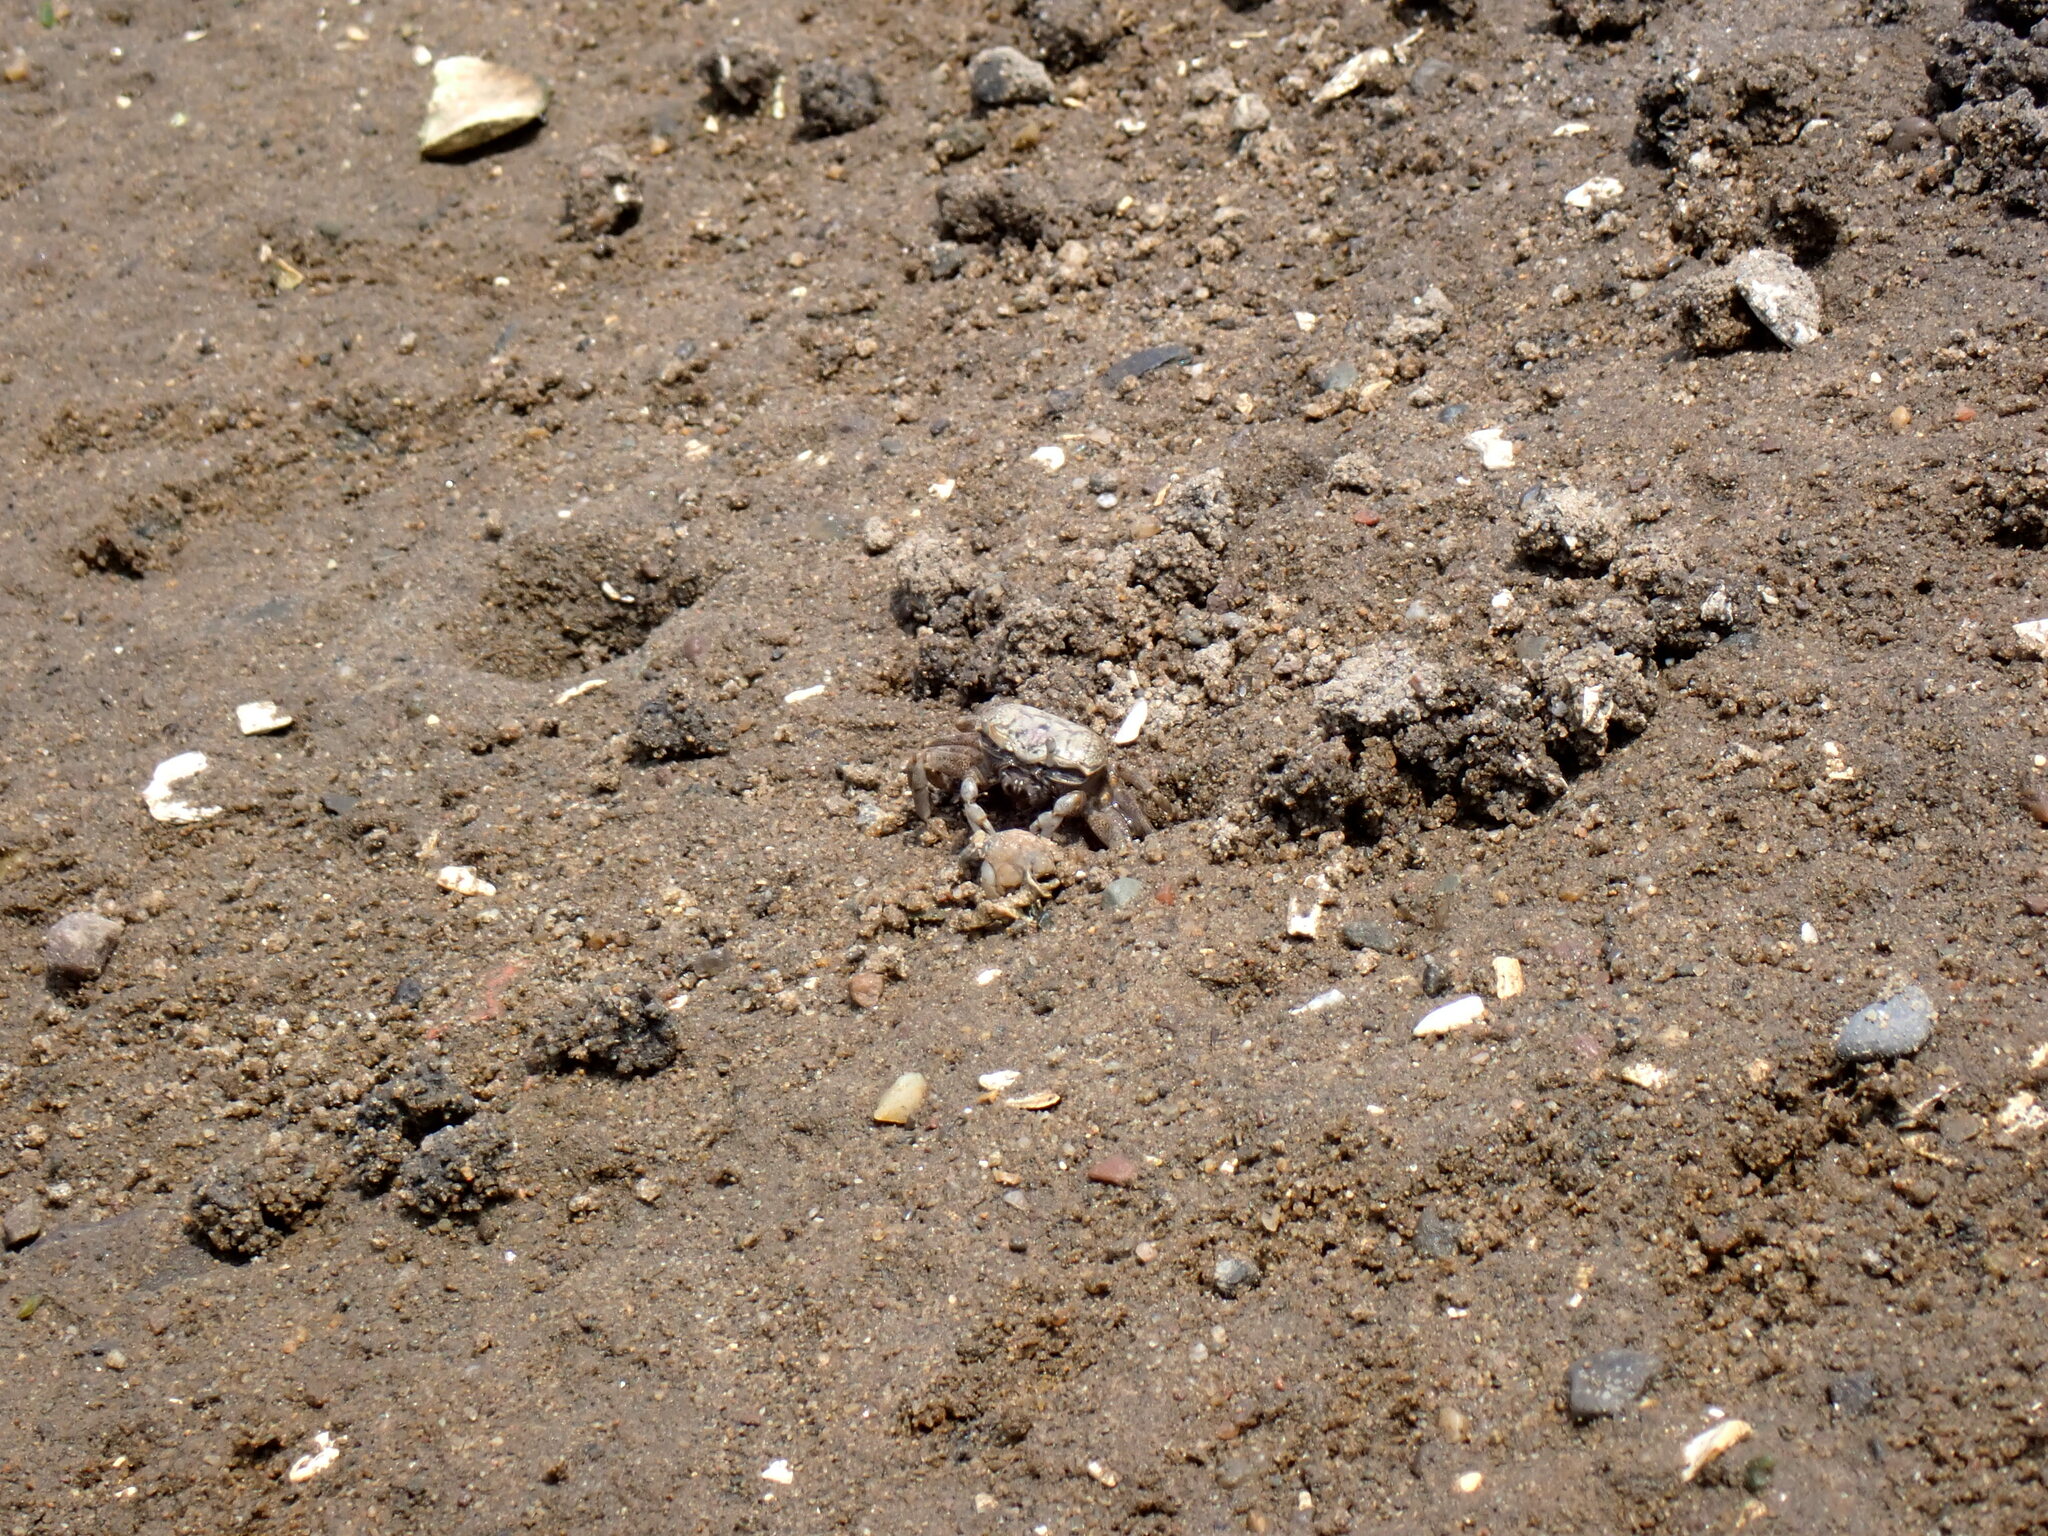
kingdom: Animalia
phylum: Arthropoda
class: Malacostraca
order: Decapoda
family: Ocypodidae
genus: Leptuca
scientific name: Leptuca pugilator
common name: Atlantic sand fiddler crab
